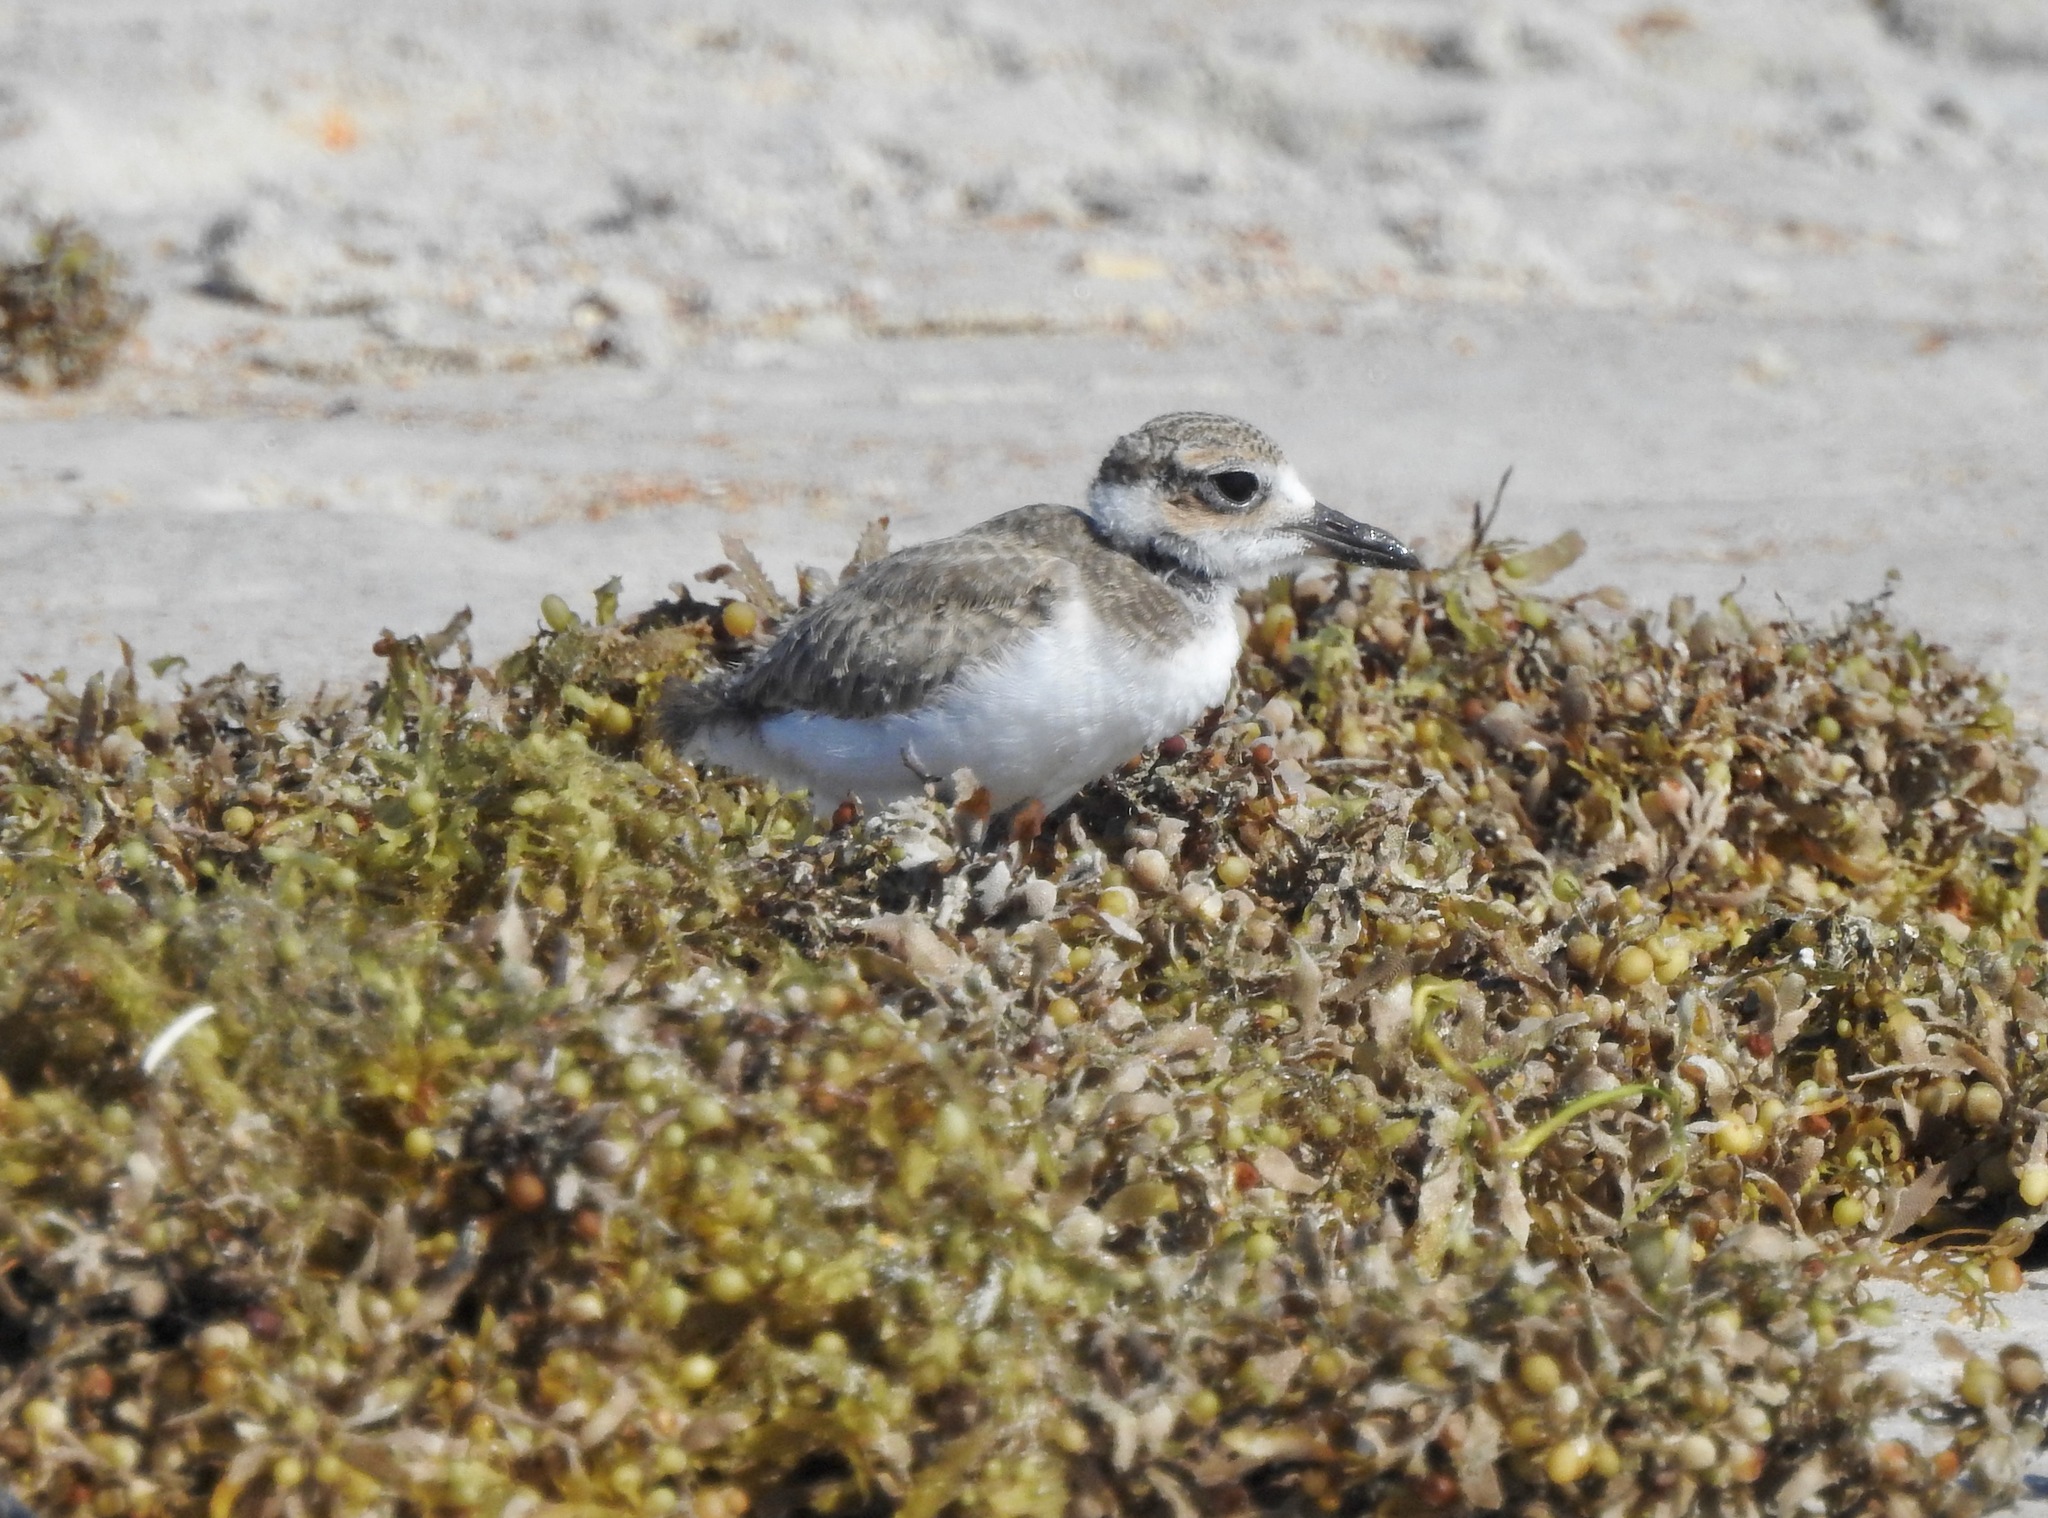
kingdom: Animalia
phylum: Chordata
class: Aves
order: Charadriiformes
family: Charadriidae
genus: Anarhynchus
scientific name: Anarhynchus
